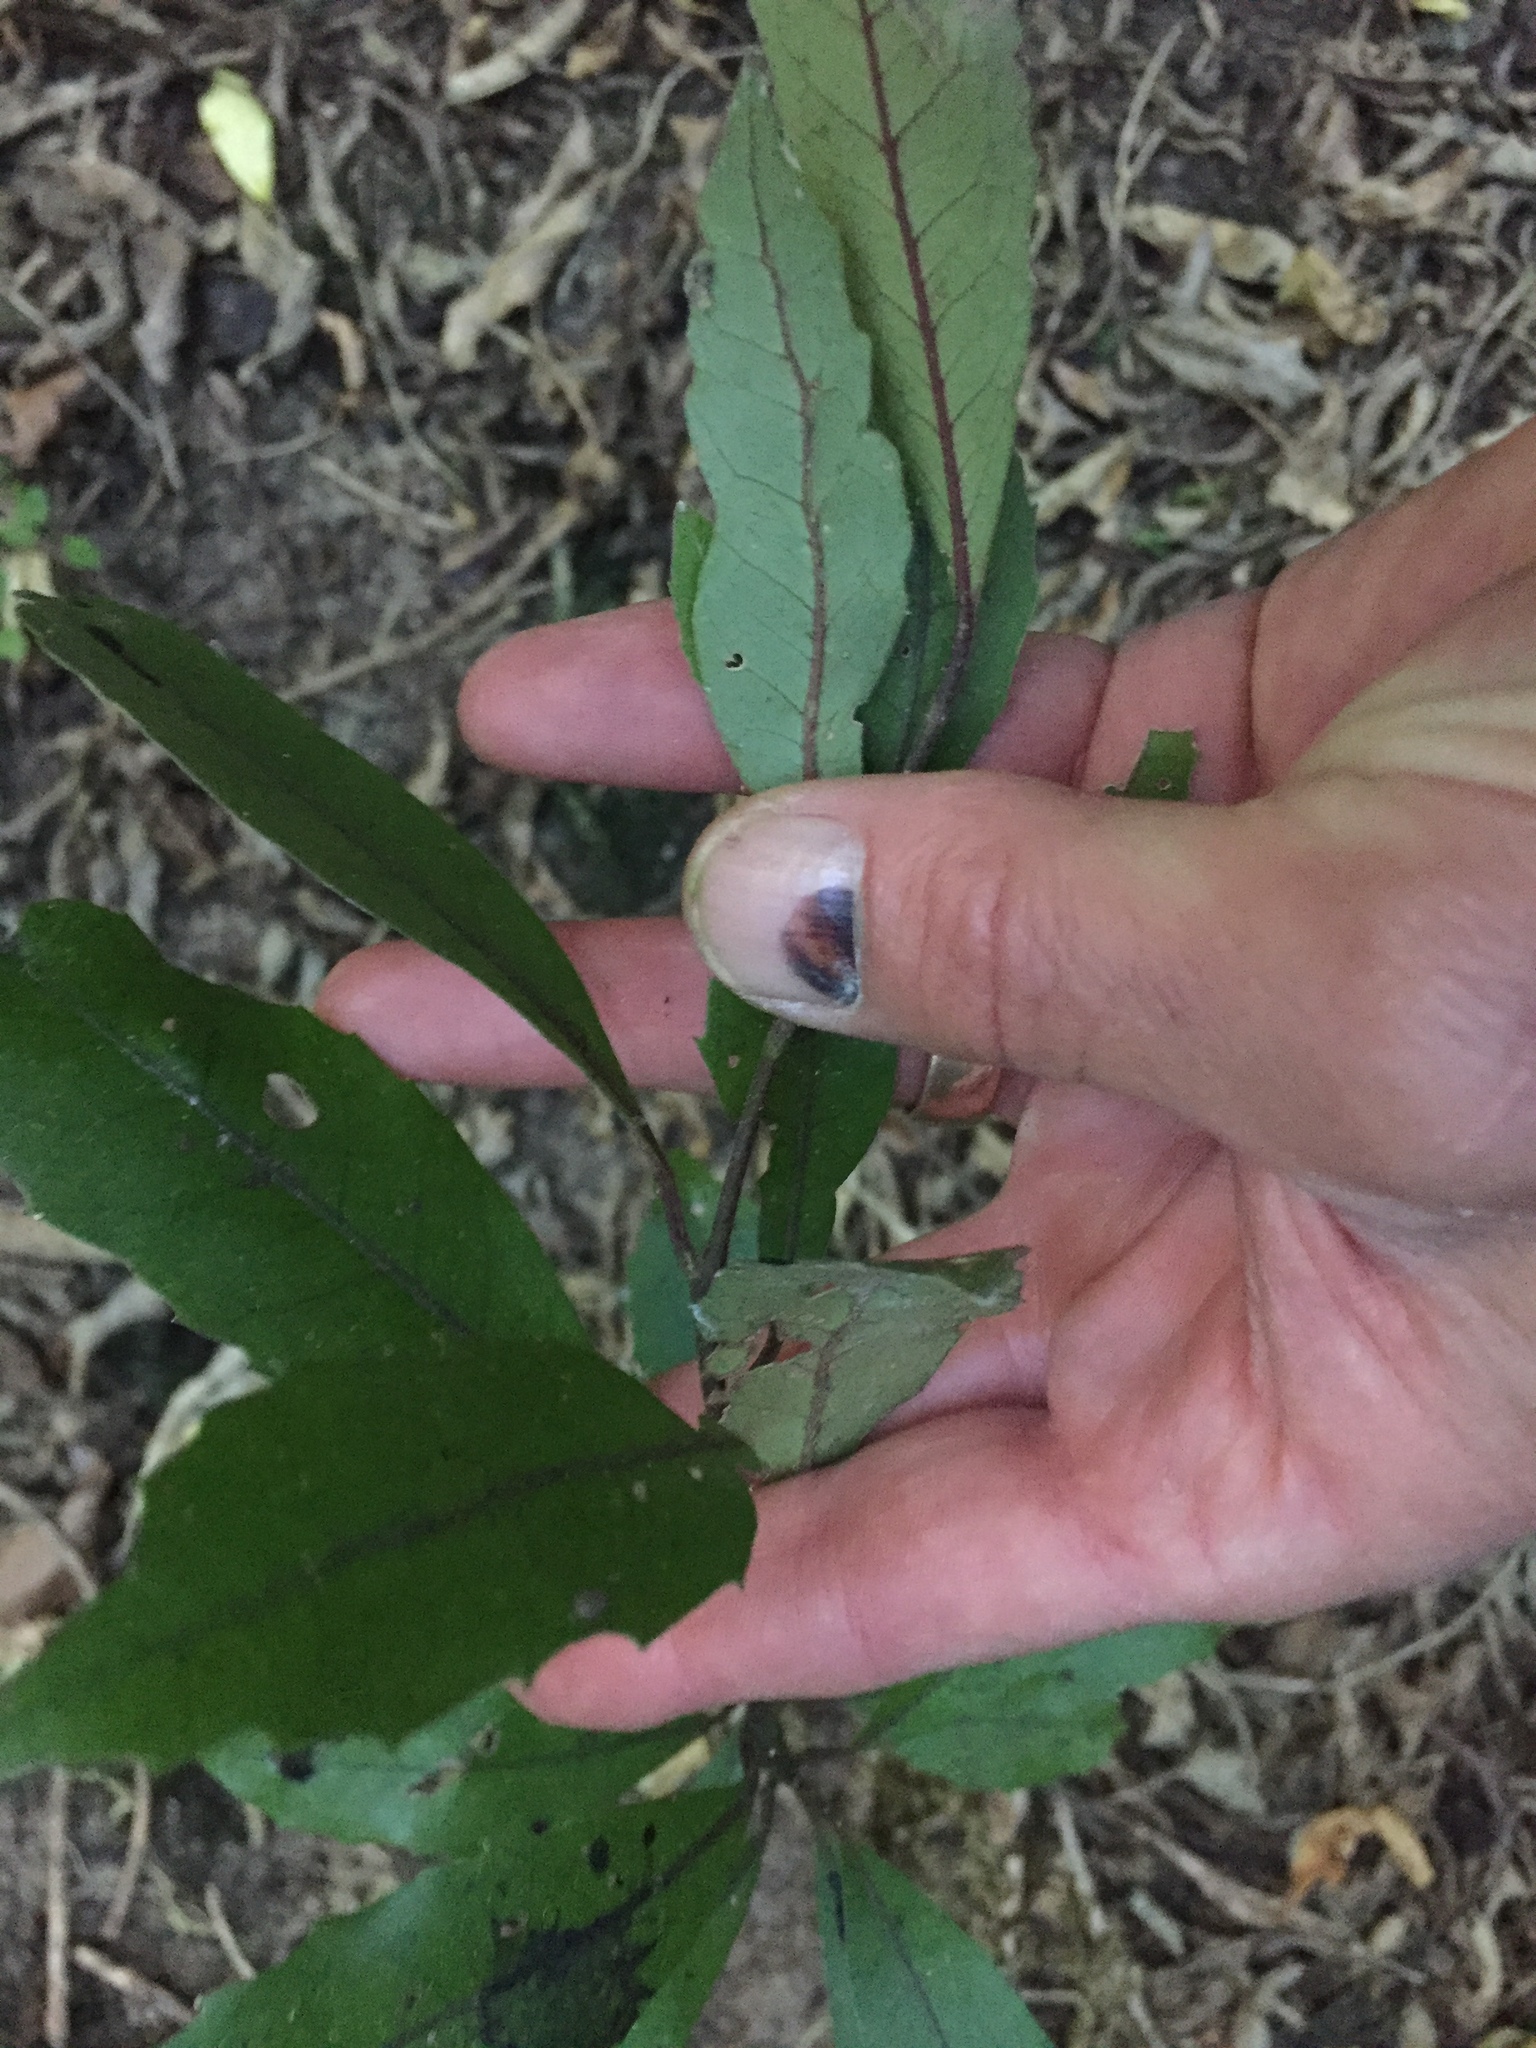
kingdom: Plantae
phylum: Tracheophyta
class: Magnoliopsida
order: Laurales
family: Monimiaceae
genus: Hedycarya
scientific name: Hedycarya arborea
